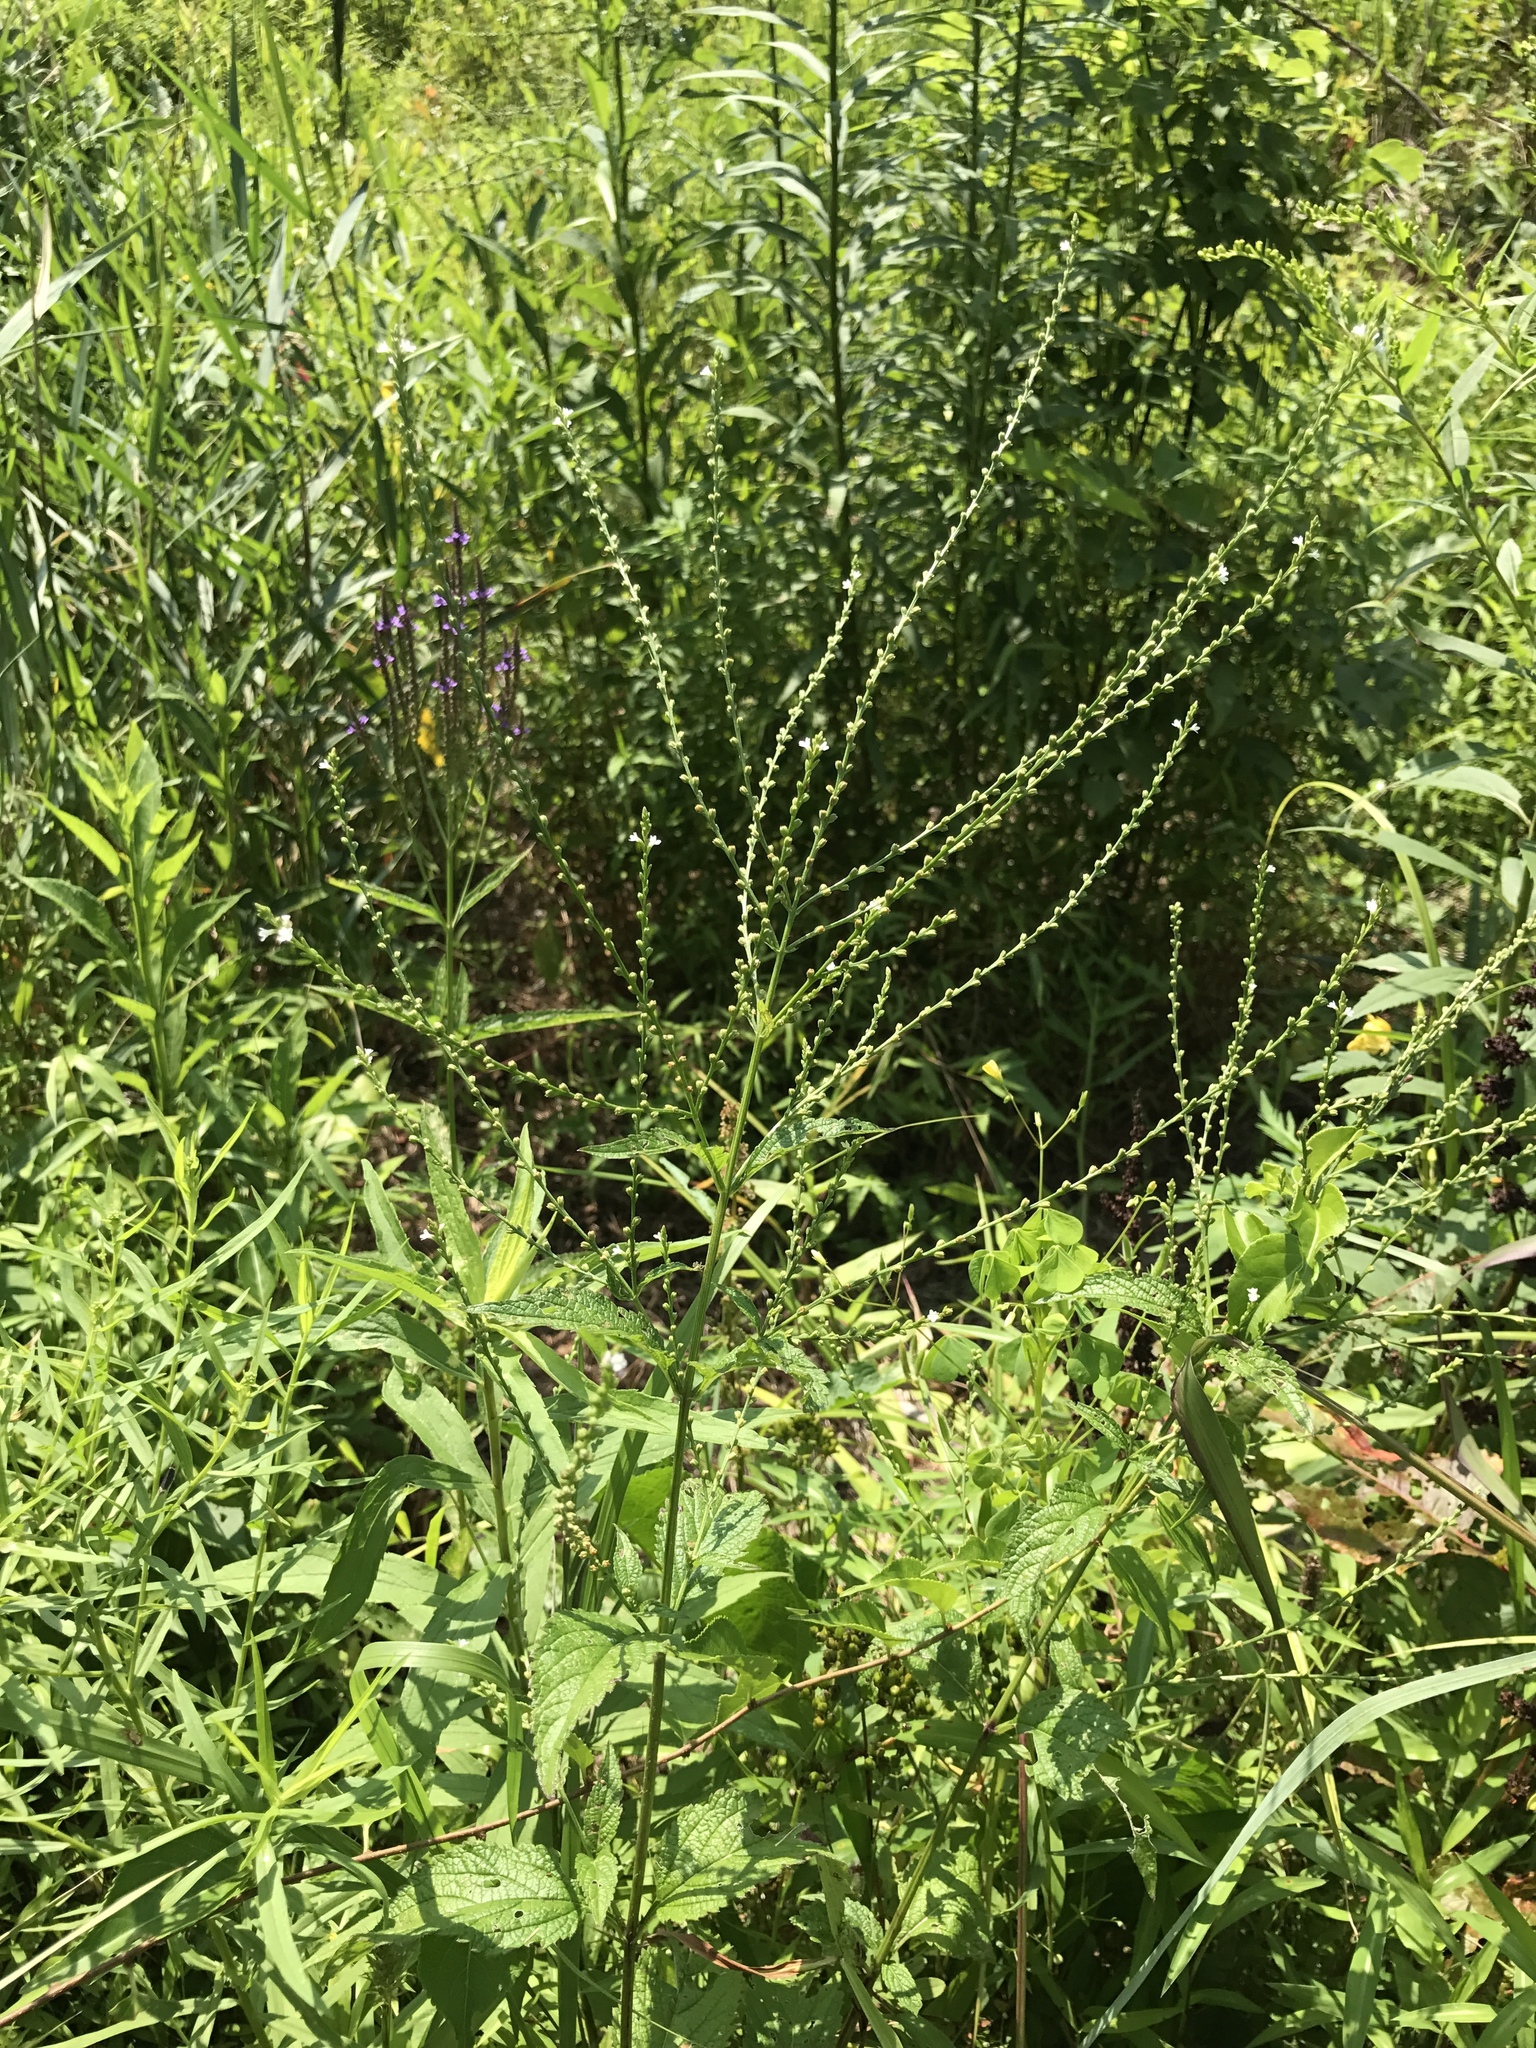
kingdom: Plantae
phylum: Tracheophyta
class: Magnoliopsida
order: Lamiales
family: Verbenaceae
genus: Verbena
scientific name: Verbena urticifolia
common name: Nettle-leaved vervain
